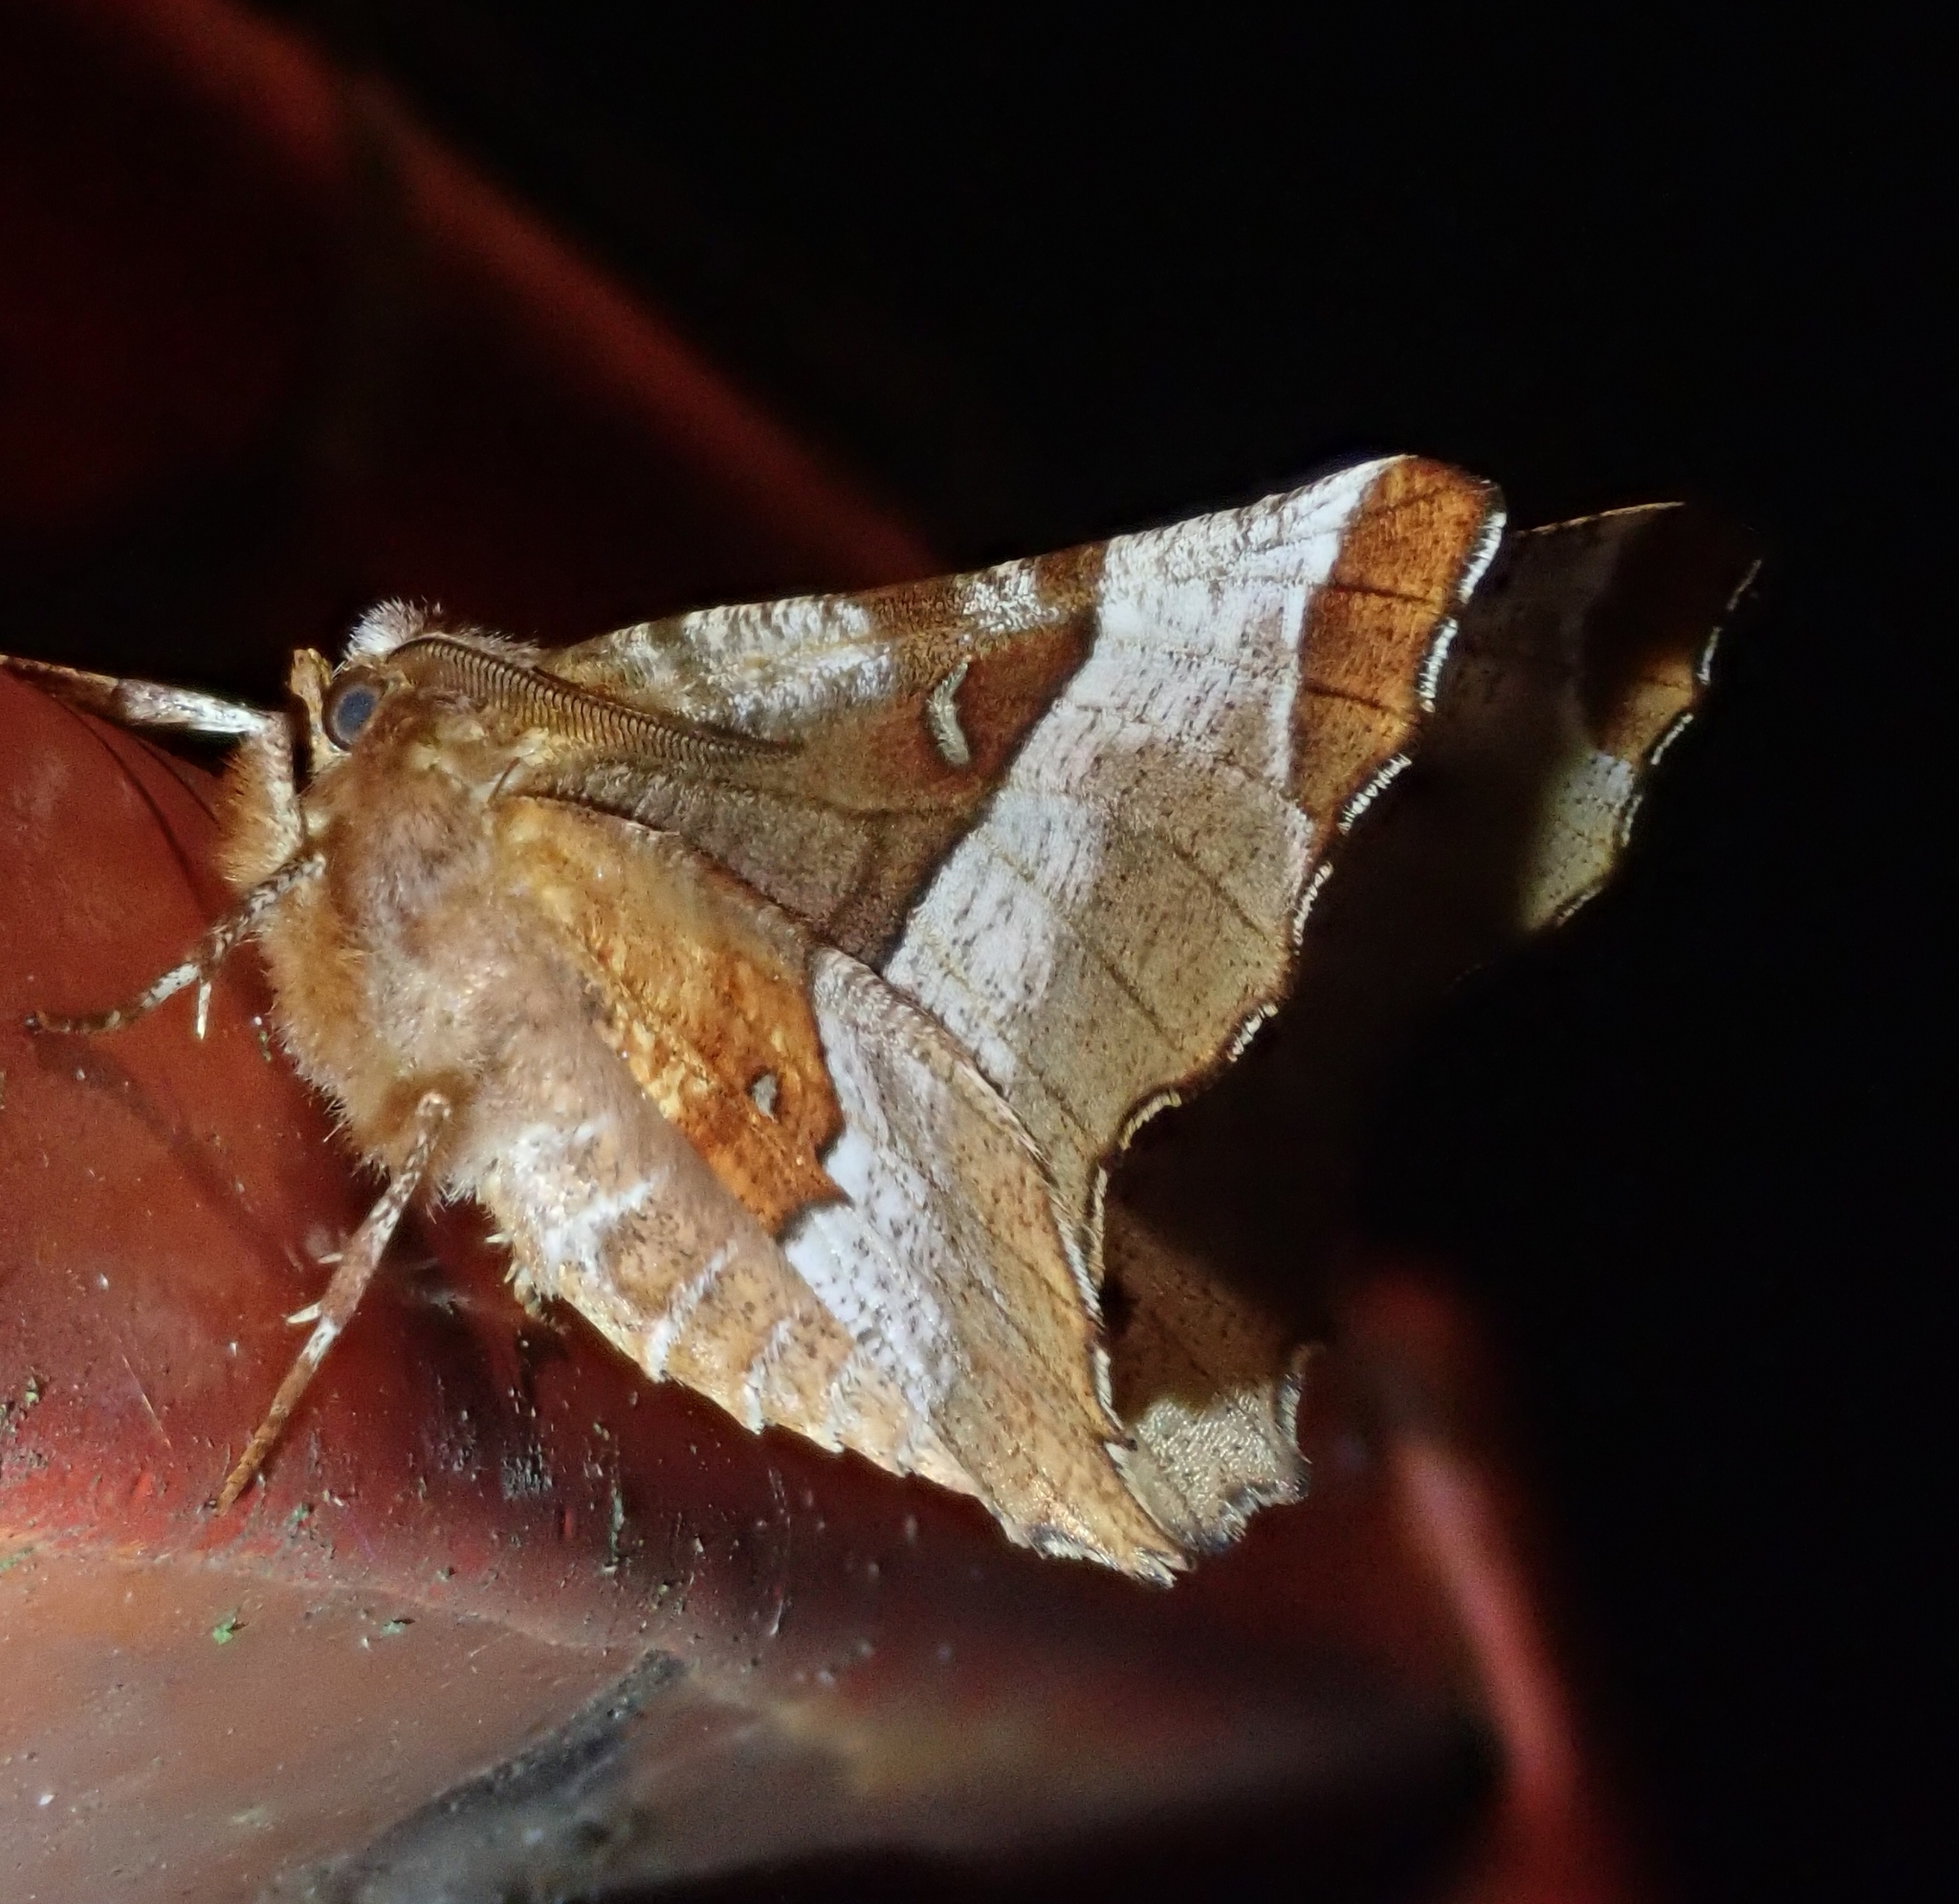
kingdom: Animalia
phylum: Arthropoda
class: Insecta
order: Lepidoptera
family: Geometridae
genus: Selenia
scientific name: Selenia tetralunaria
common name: Purple thorn
